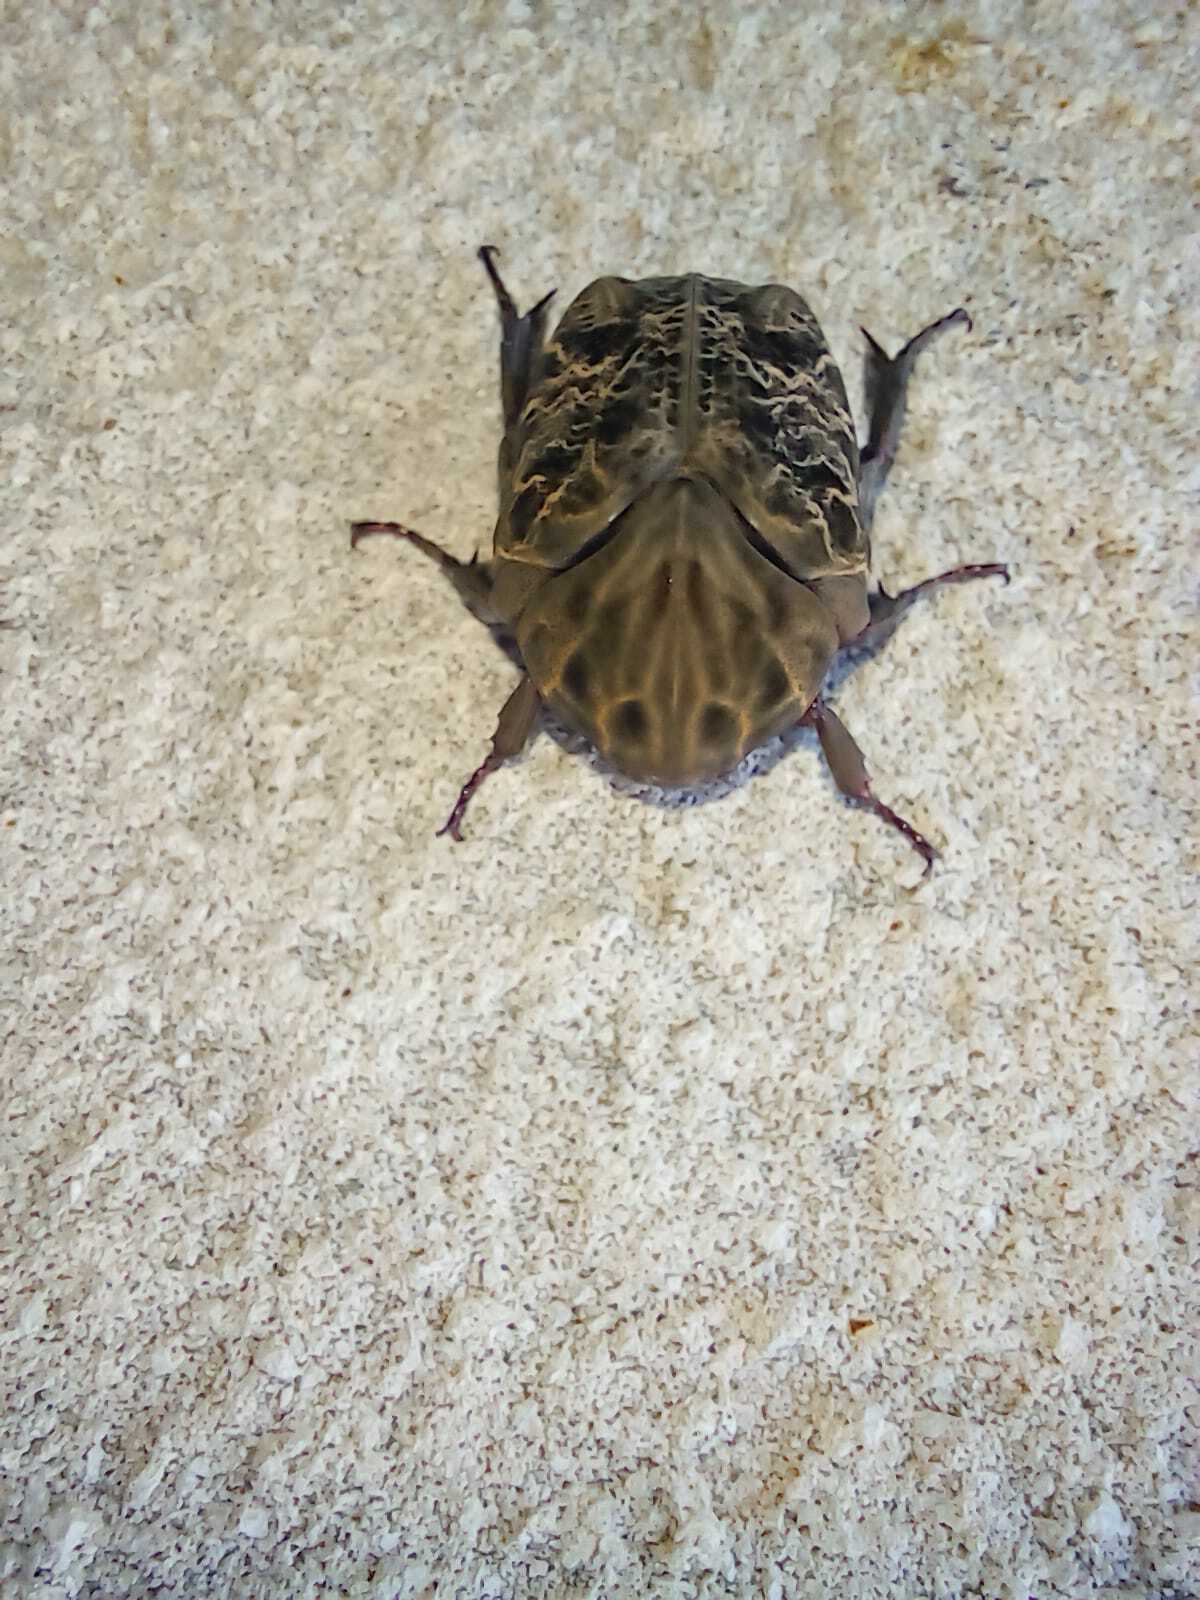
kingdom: Animalia
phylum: Arthropoda
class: Insecta
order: Coleoptera
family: Scarabaeidae
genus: Gymnetis
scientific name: Gymnetis chalcipes
